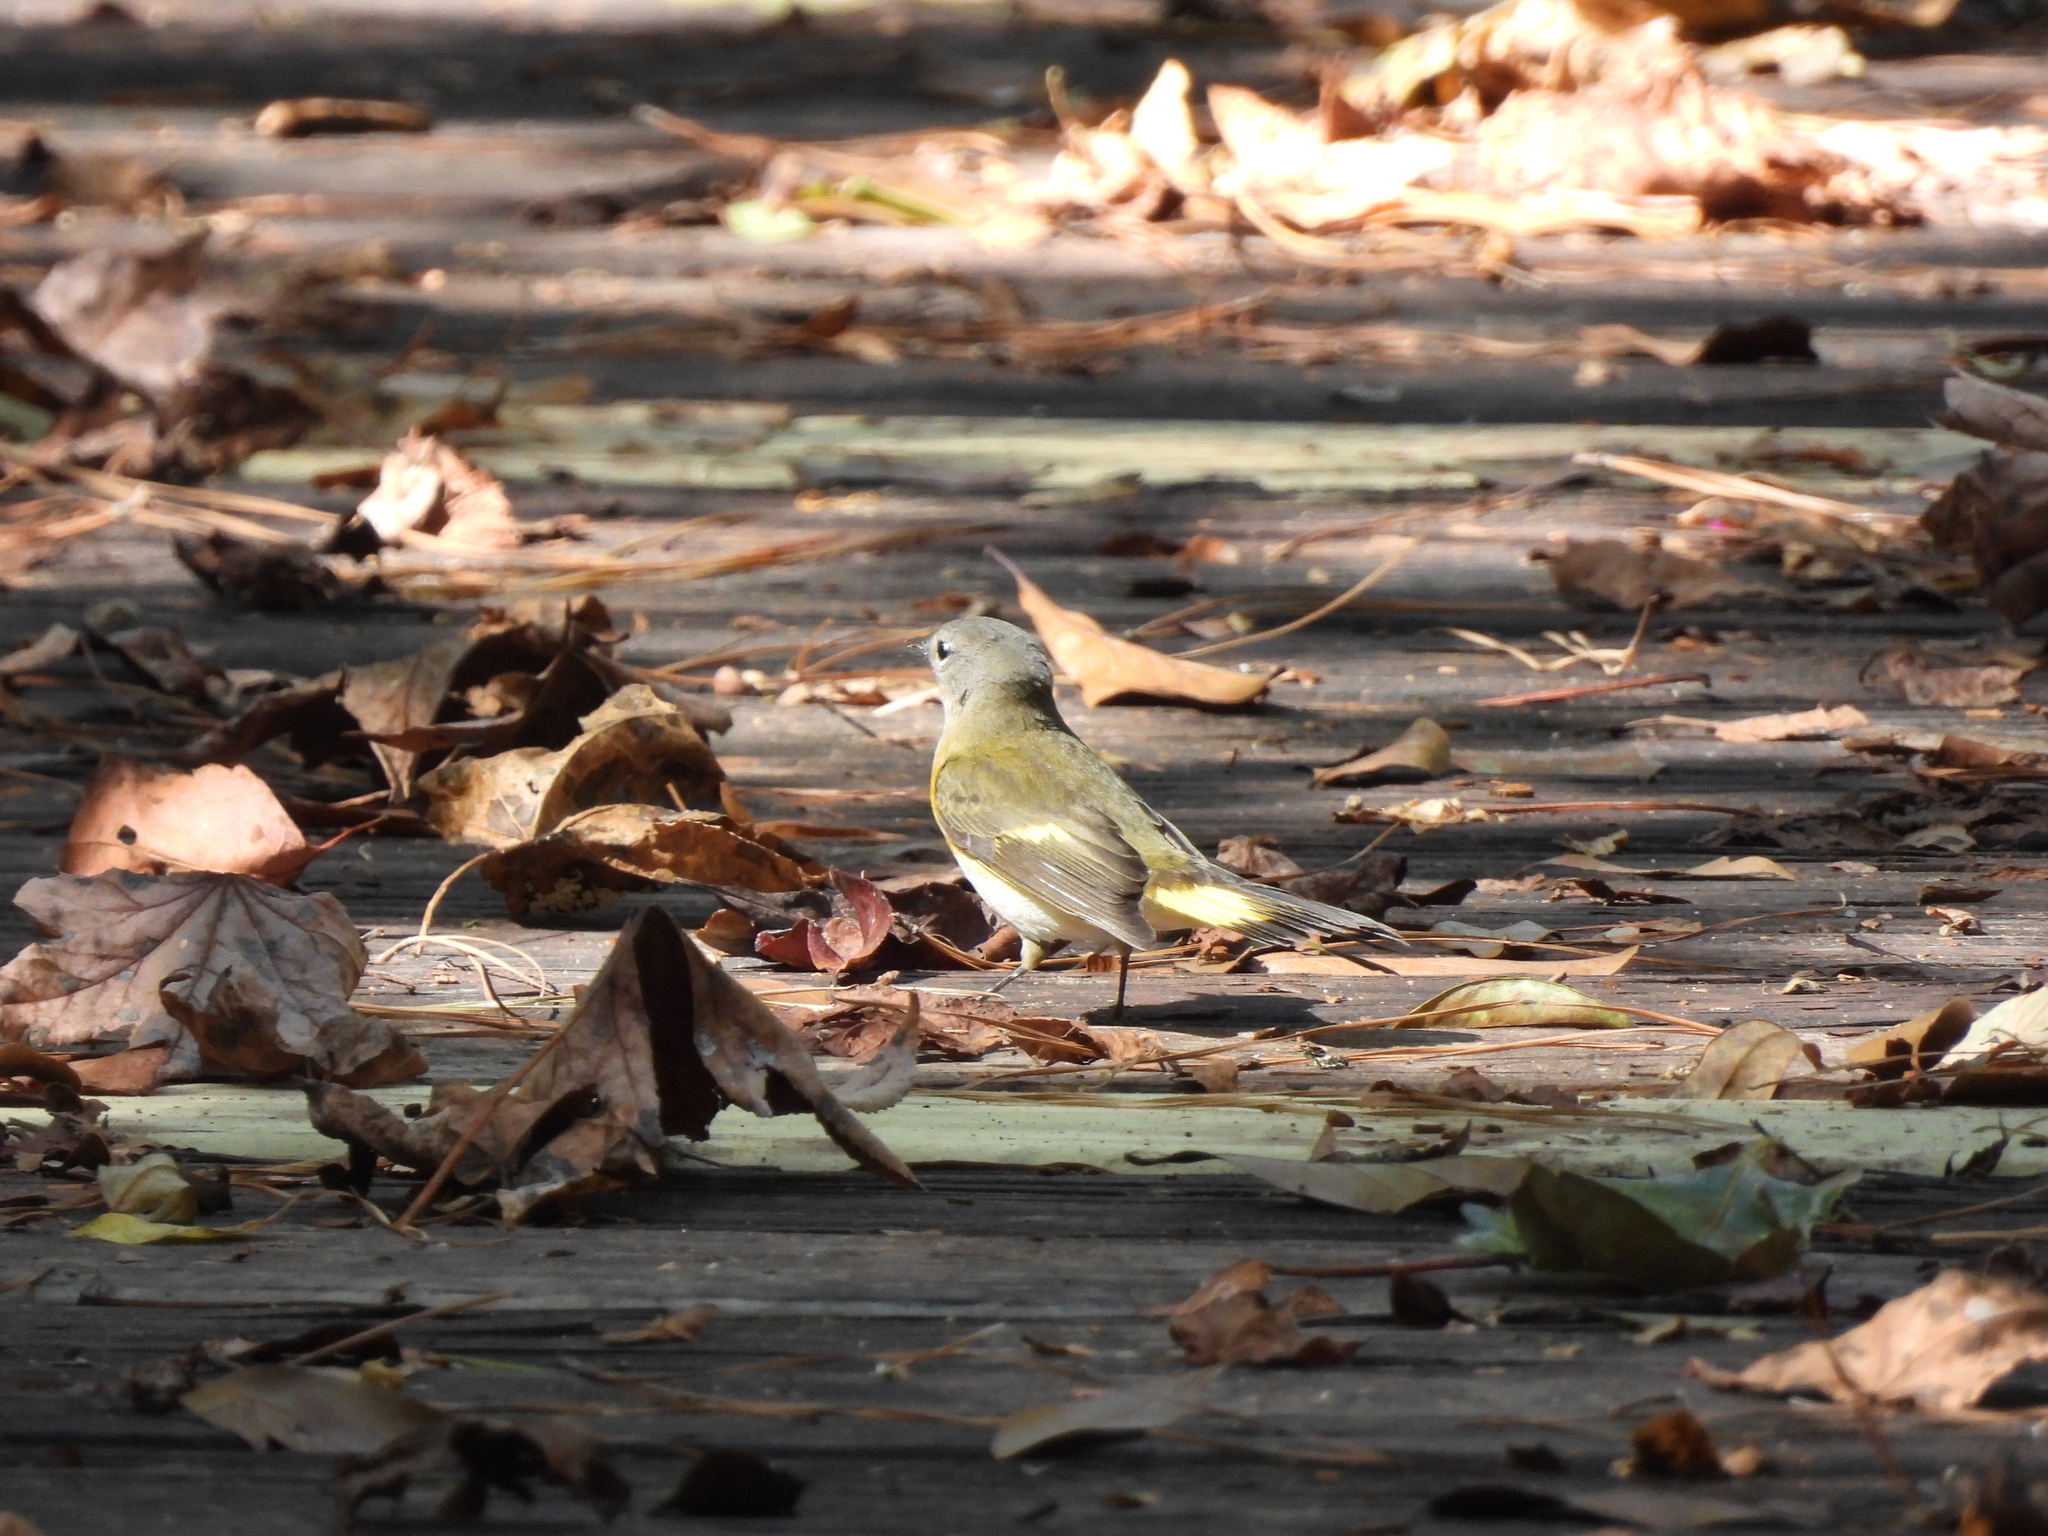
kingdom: Animalia
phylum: Chordata
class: Aves
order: Passeriformes
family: Parulidae
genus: Setophaga
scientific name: Setophaga ruticilla
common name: American redstart
